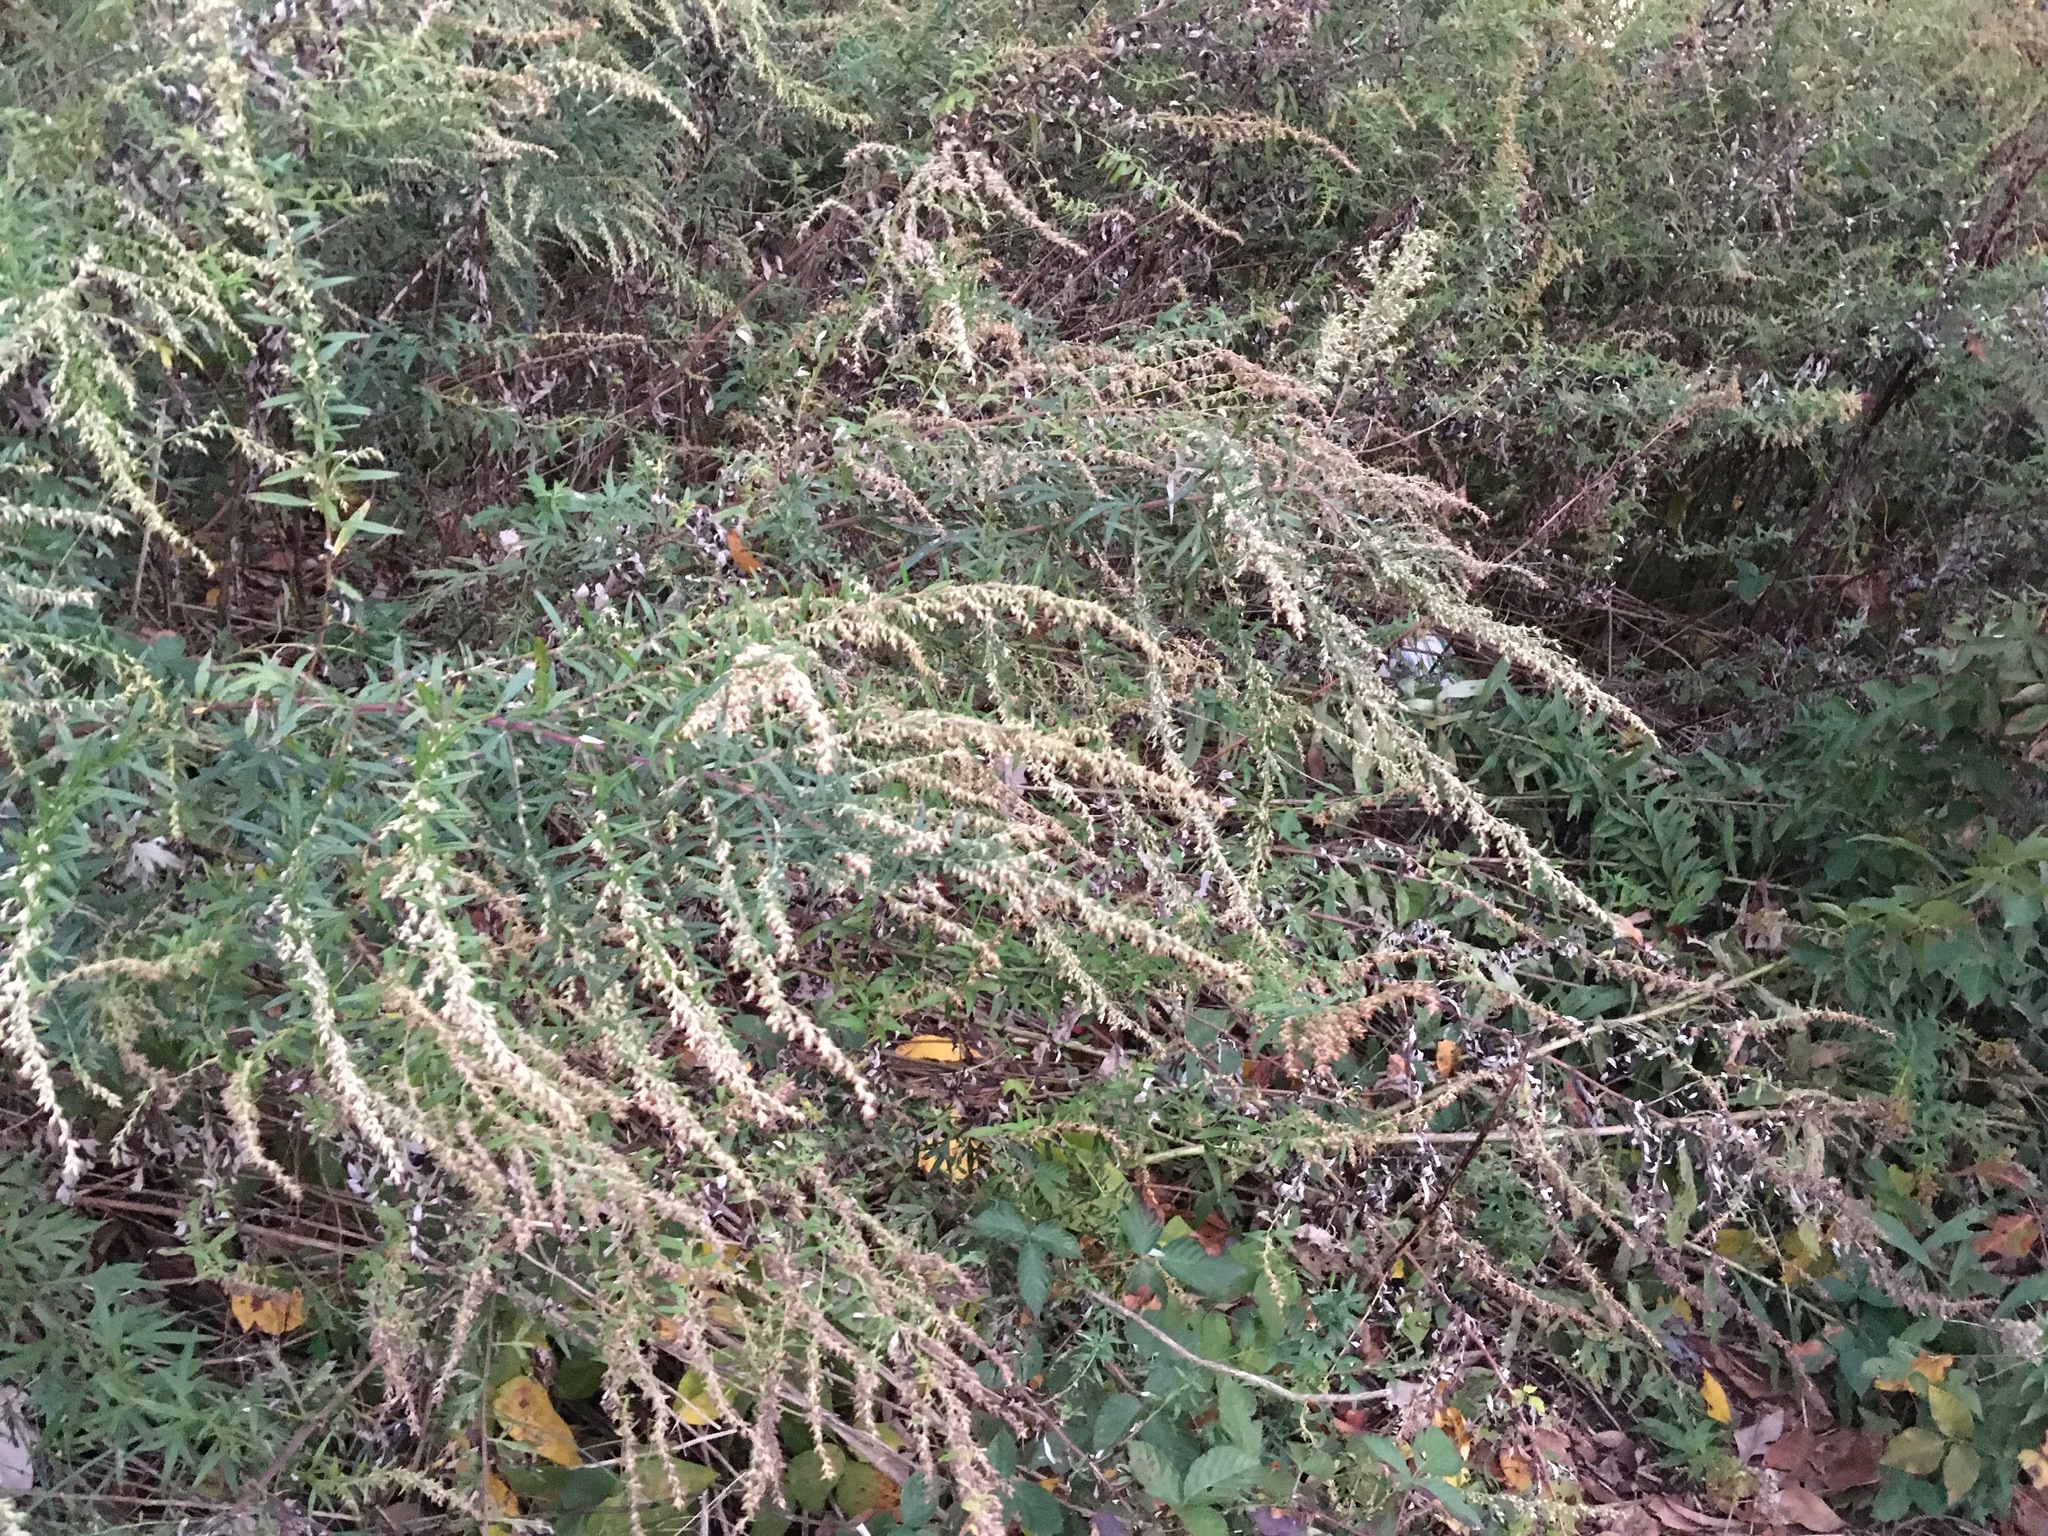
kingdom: Plantae
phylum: Tracheophyta
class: Magnoliopsida
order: Asterales
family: Asteraceae
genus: Artemisia
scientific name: Artemisia vulgaris
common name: Mugwort
